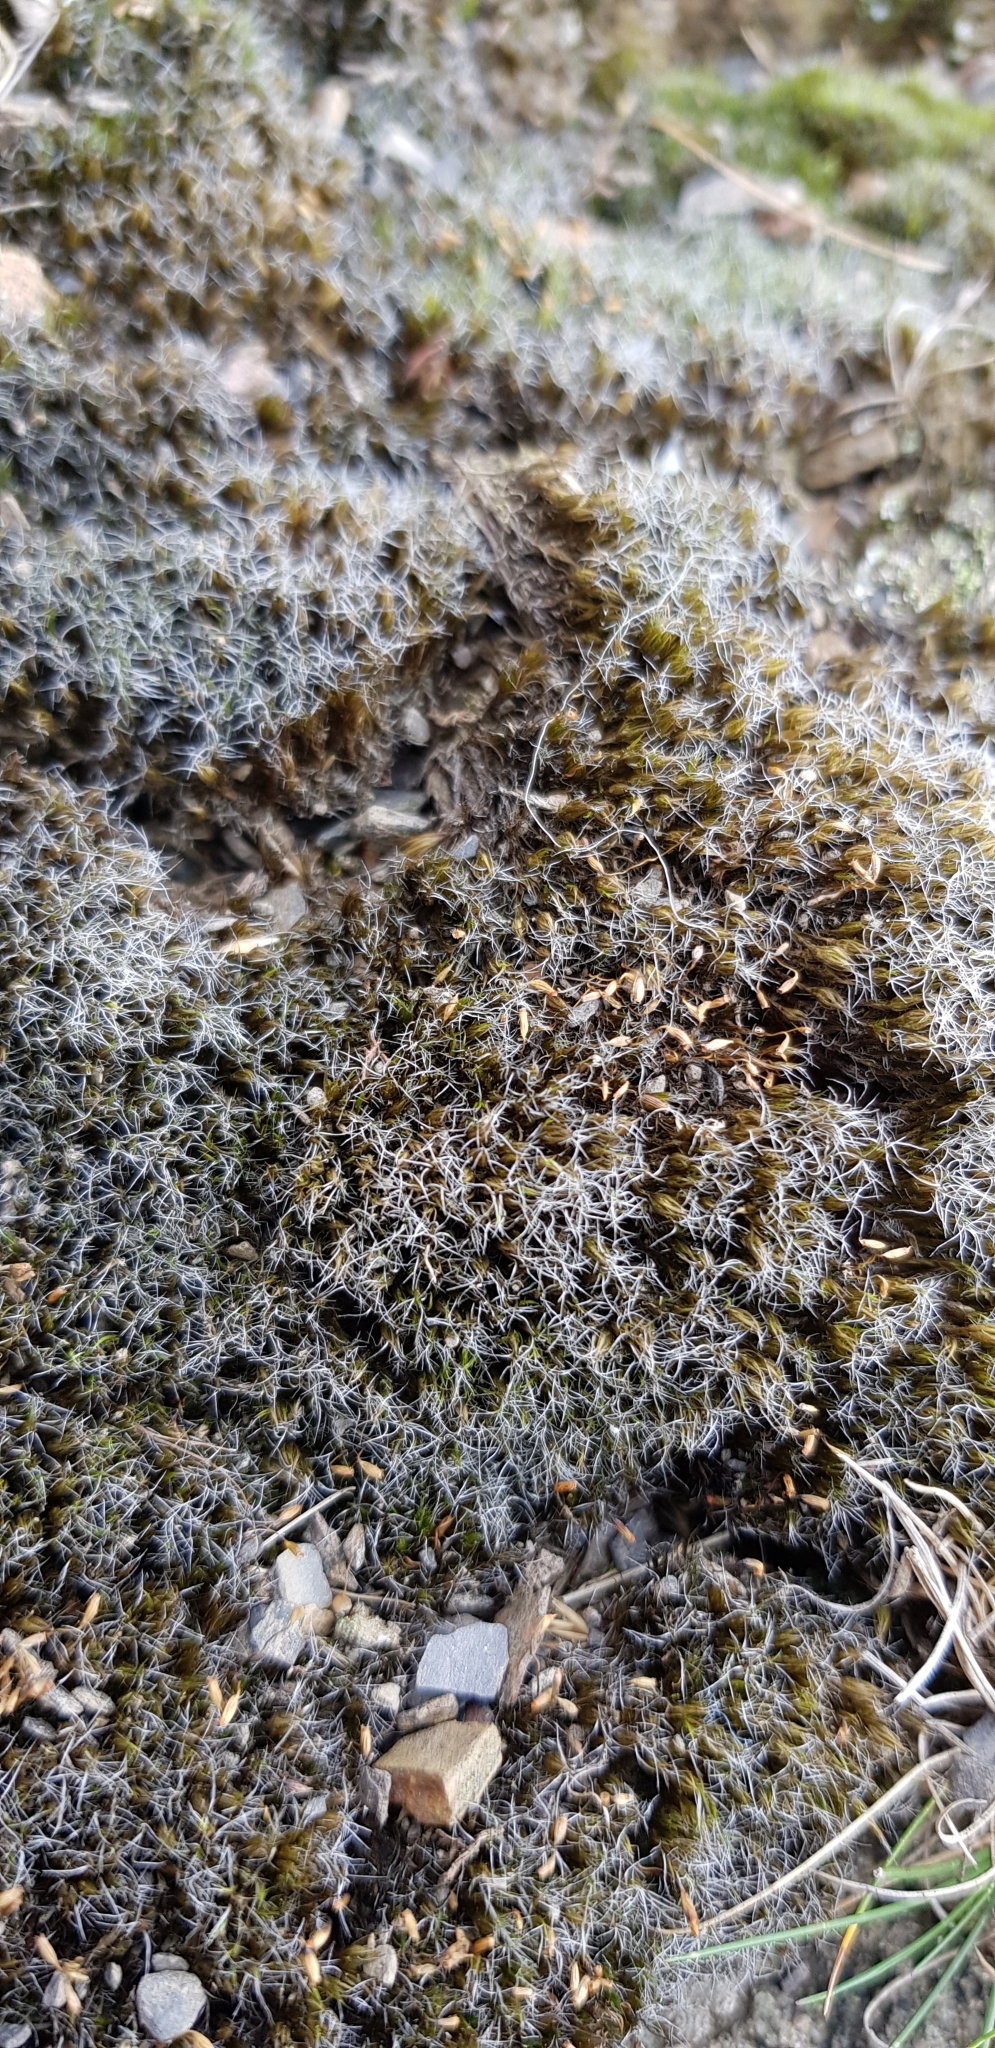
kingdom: Plantae
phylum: Bryophyta
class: Bryopsida
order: Dicranales
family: Leucobryaceae
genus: Campylopus
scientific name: Campylopus introflexus
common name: Heath star moss
